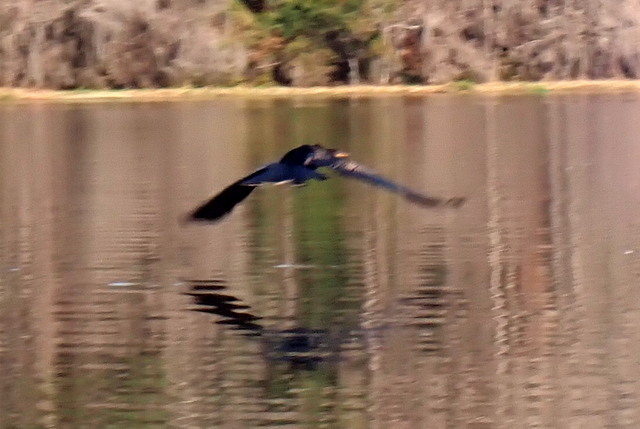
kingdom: Animalia
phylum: Chordata
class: Aves
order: Suliformes
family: Anhingidae
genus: Anhinga
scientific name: Anhinga anhinga
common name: Anhinga
